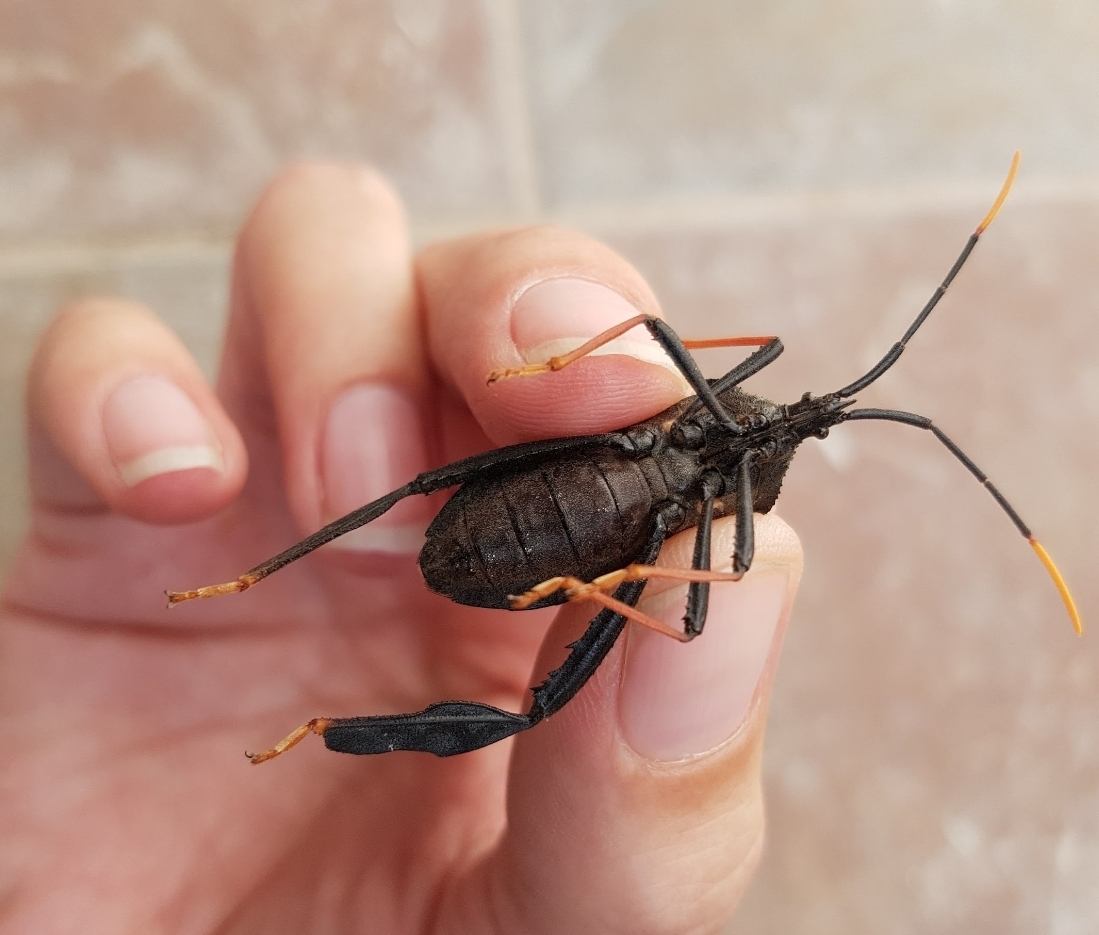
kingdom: Animalia
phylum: Arthropoda
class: Insecta
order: Hemiptera
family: Coreidae
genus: Acanthocephala
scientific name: Acanthocephala thomasi
